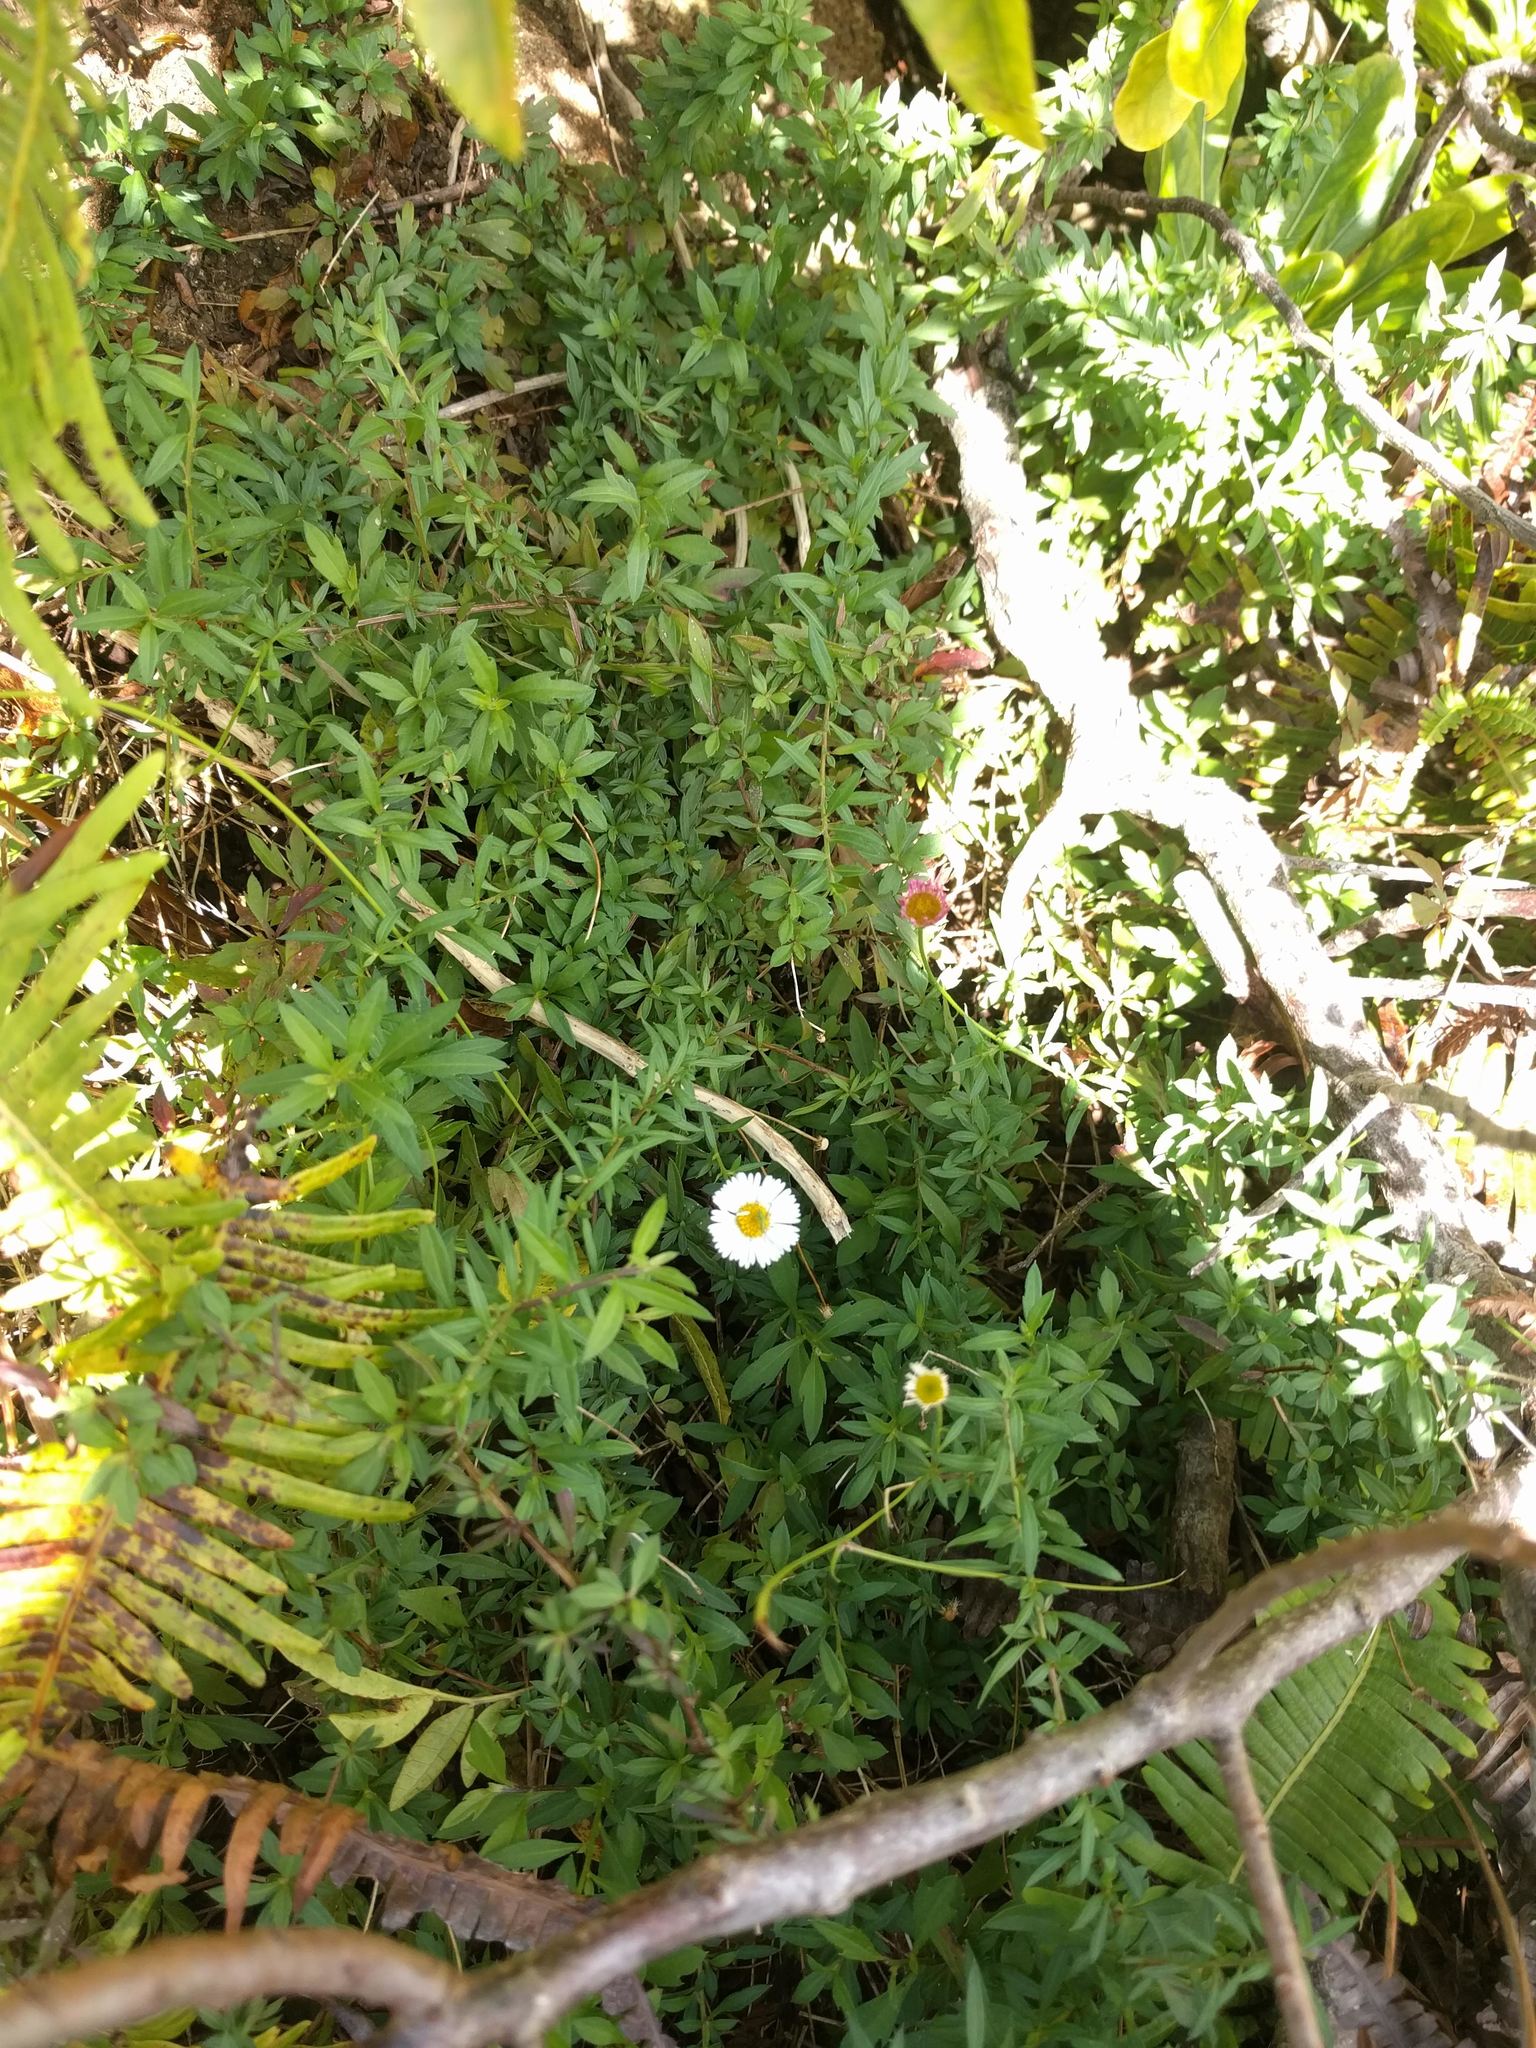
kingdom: Plantae
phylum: Tracheophyta
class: Magnoliopsida
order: Asterales
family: Asteraceae
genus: Erigeron
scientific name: Erigeron karvinskianus
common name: Mexican fleabane
